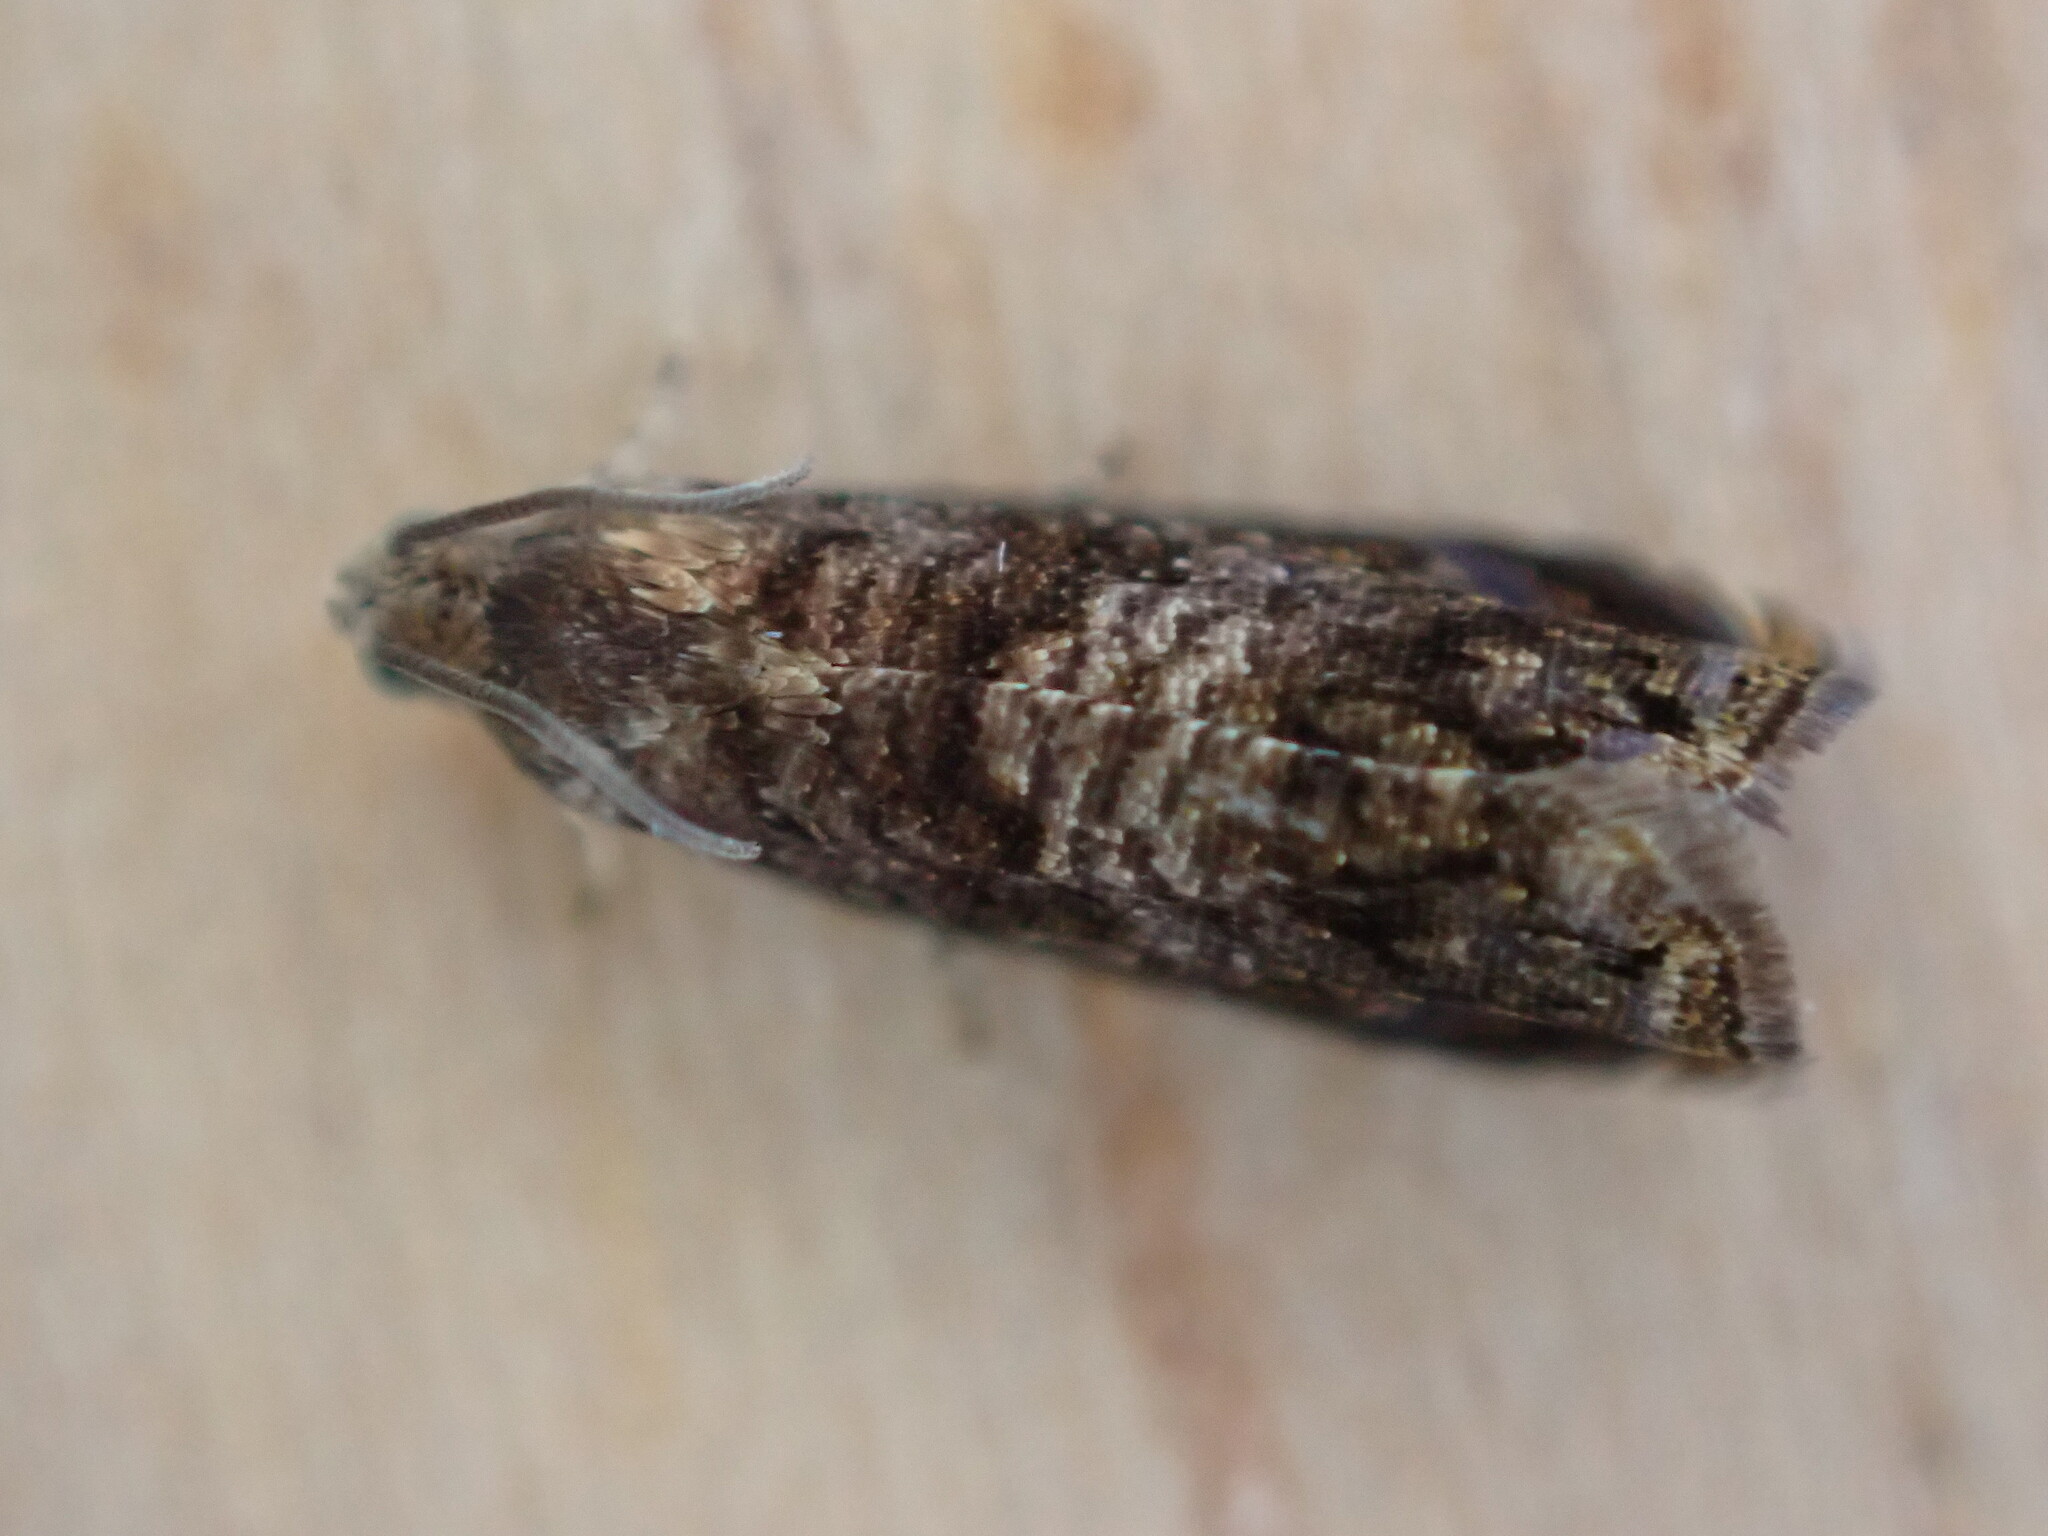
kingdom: Animalia
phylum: Arthropoda
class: Insecta
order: Lepidoptera
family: Tortricidae
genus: Cydia
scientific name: Cydia fagiglandana
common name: Large beech piercer
